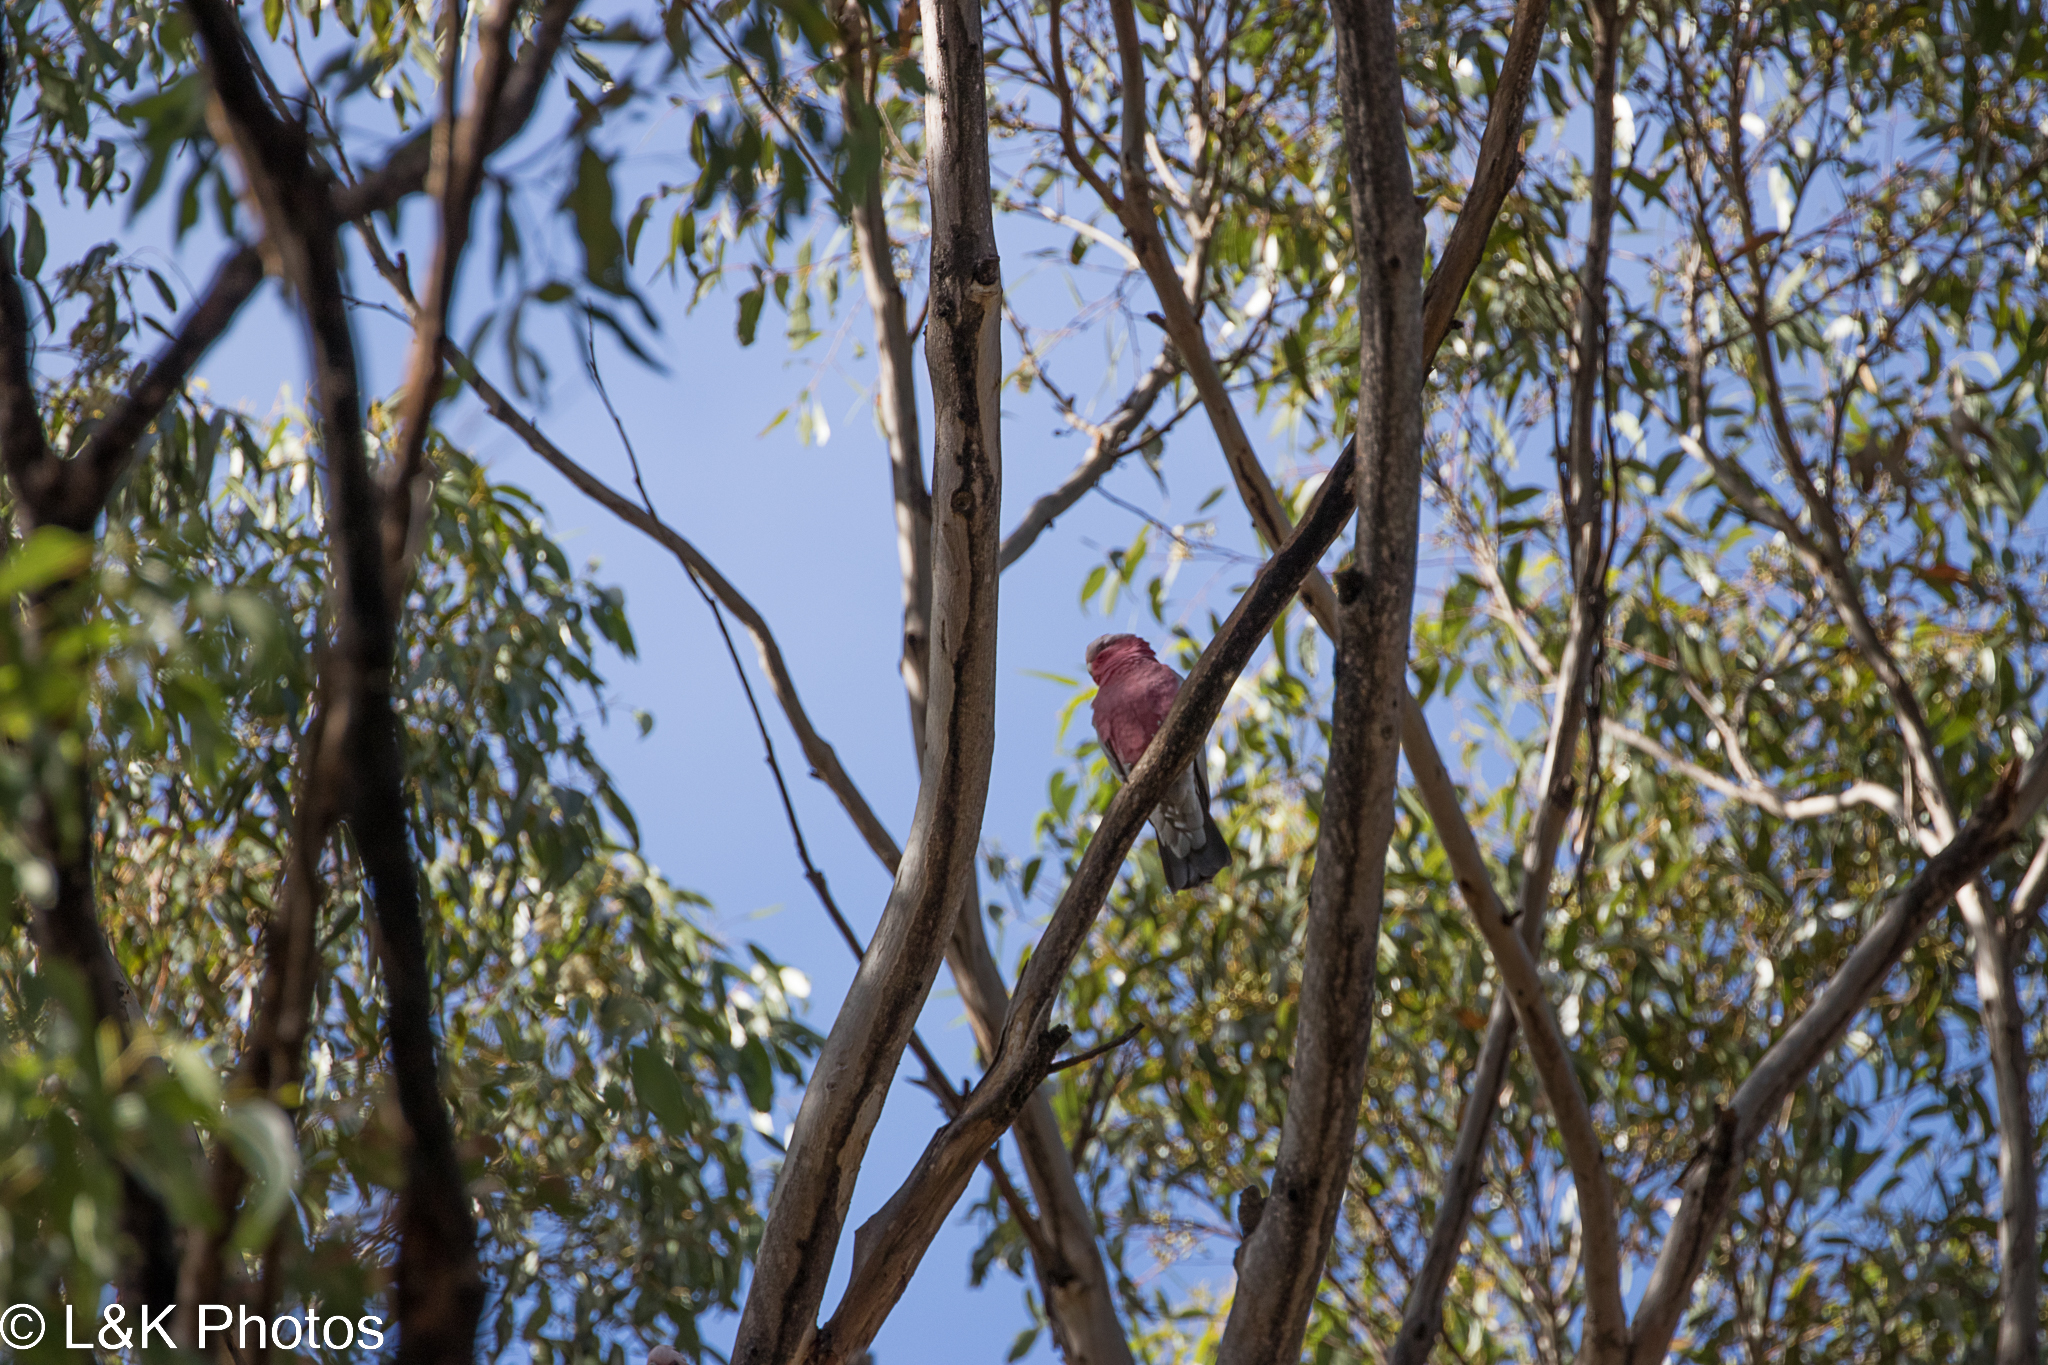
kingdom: Animalia
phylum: Chordata
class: Aves
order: Psittaciformes
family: Psittacidae
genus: Eolophus
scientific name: Eolophus roseicapilla
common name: Galah
